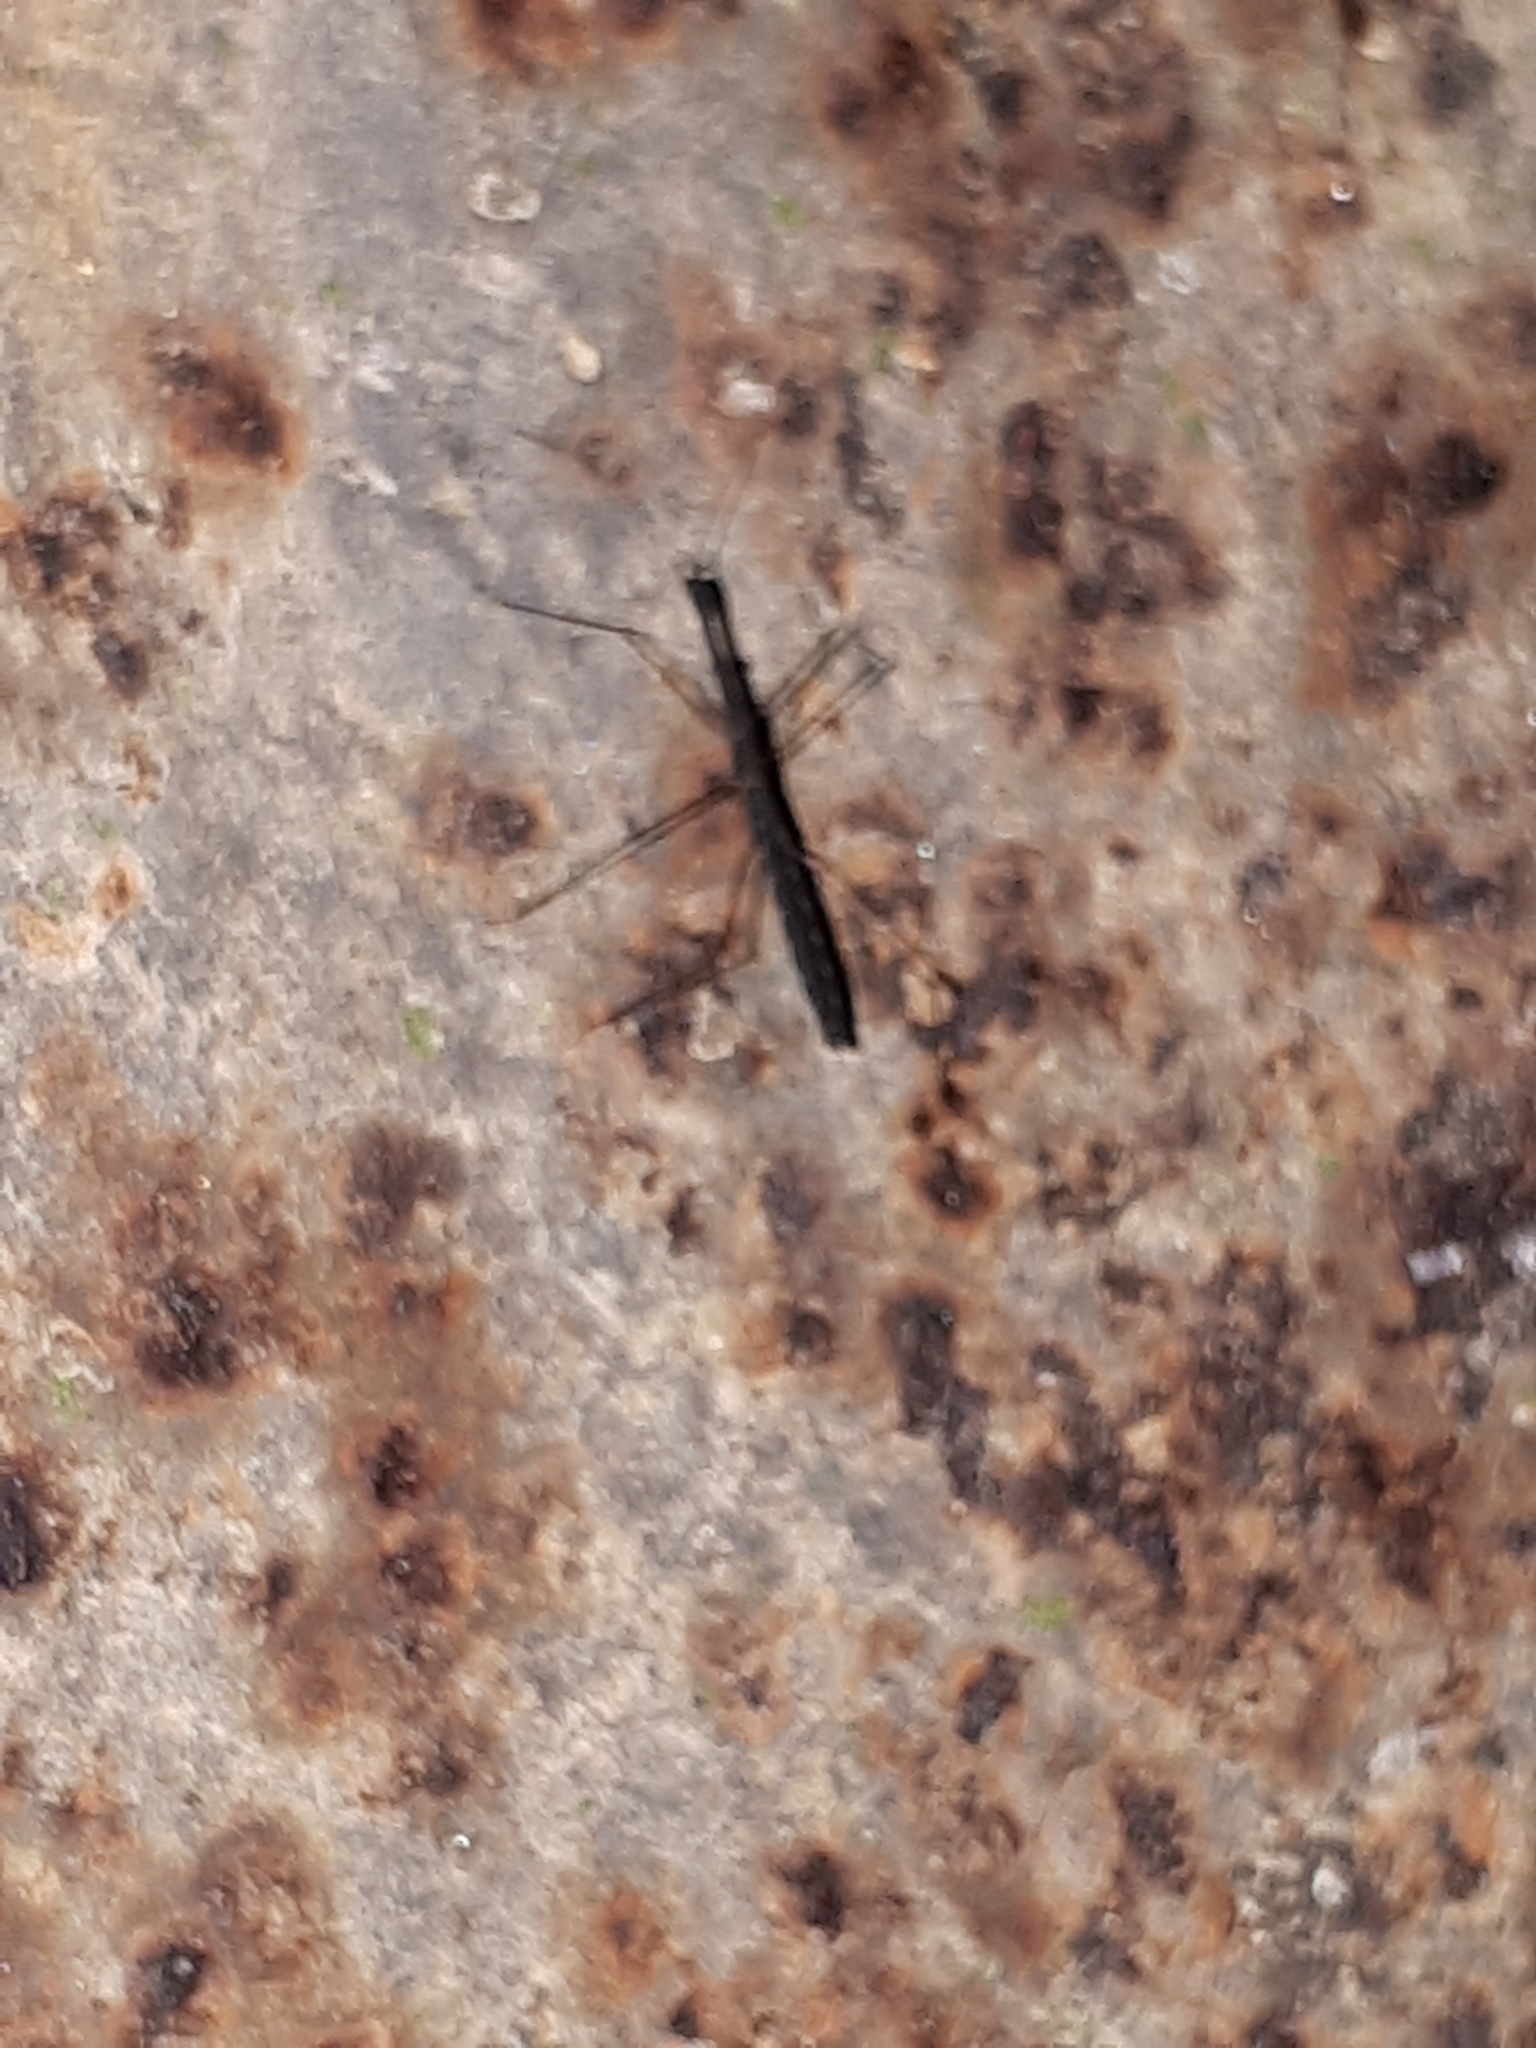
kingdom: Animalia
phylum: Arthropoda
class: Insecta
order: Hemiptera
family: Hydrometridae
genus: Hydrometra
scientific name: Hydrometra
